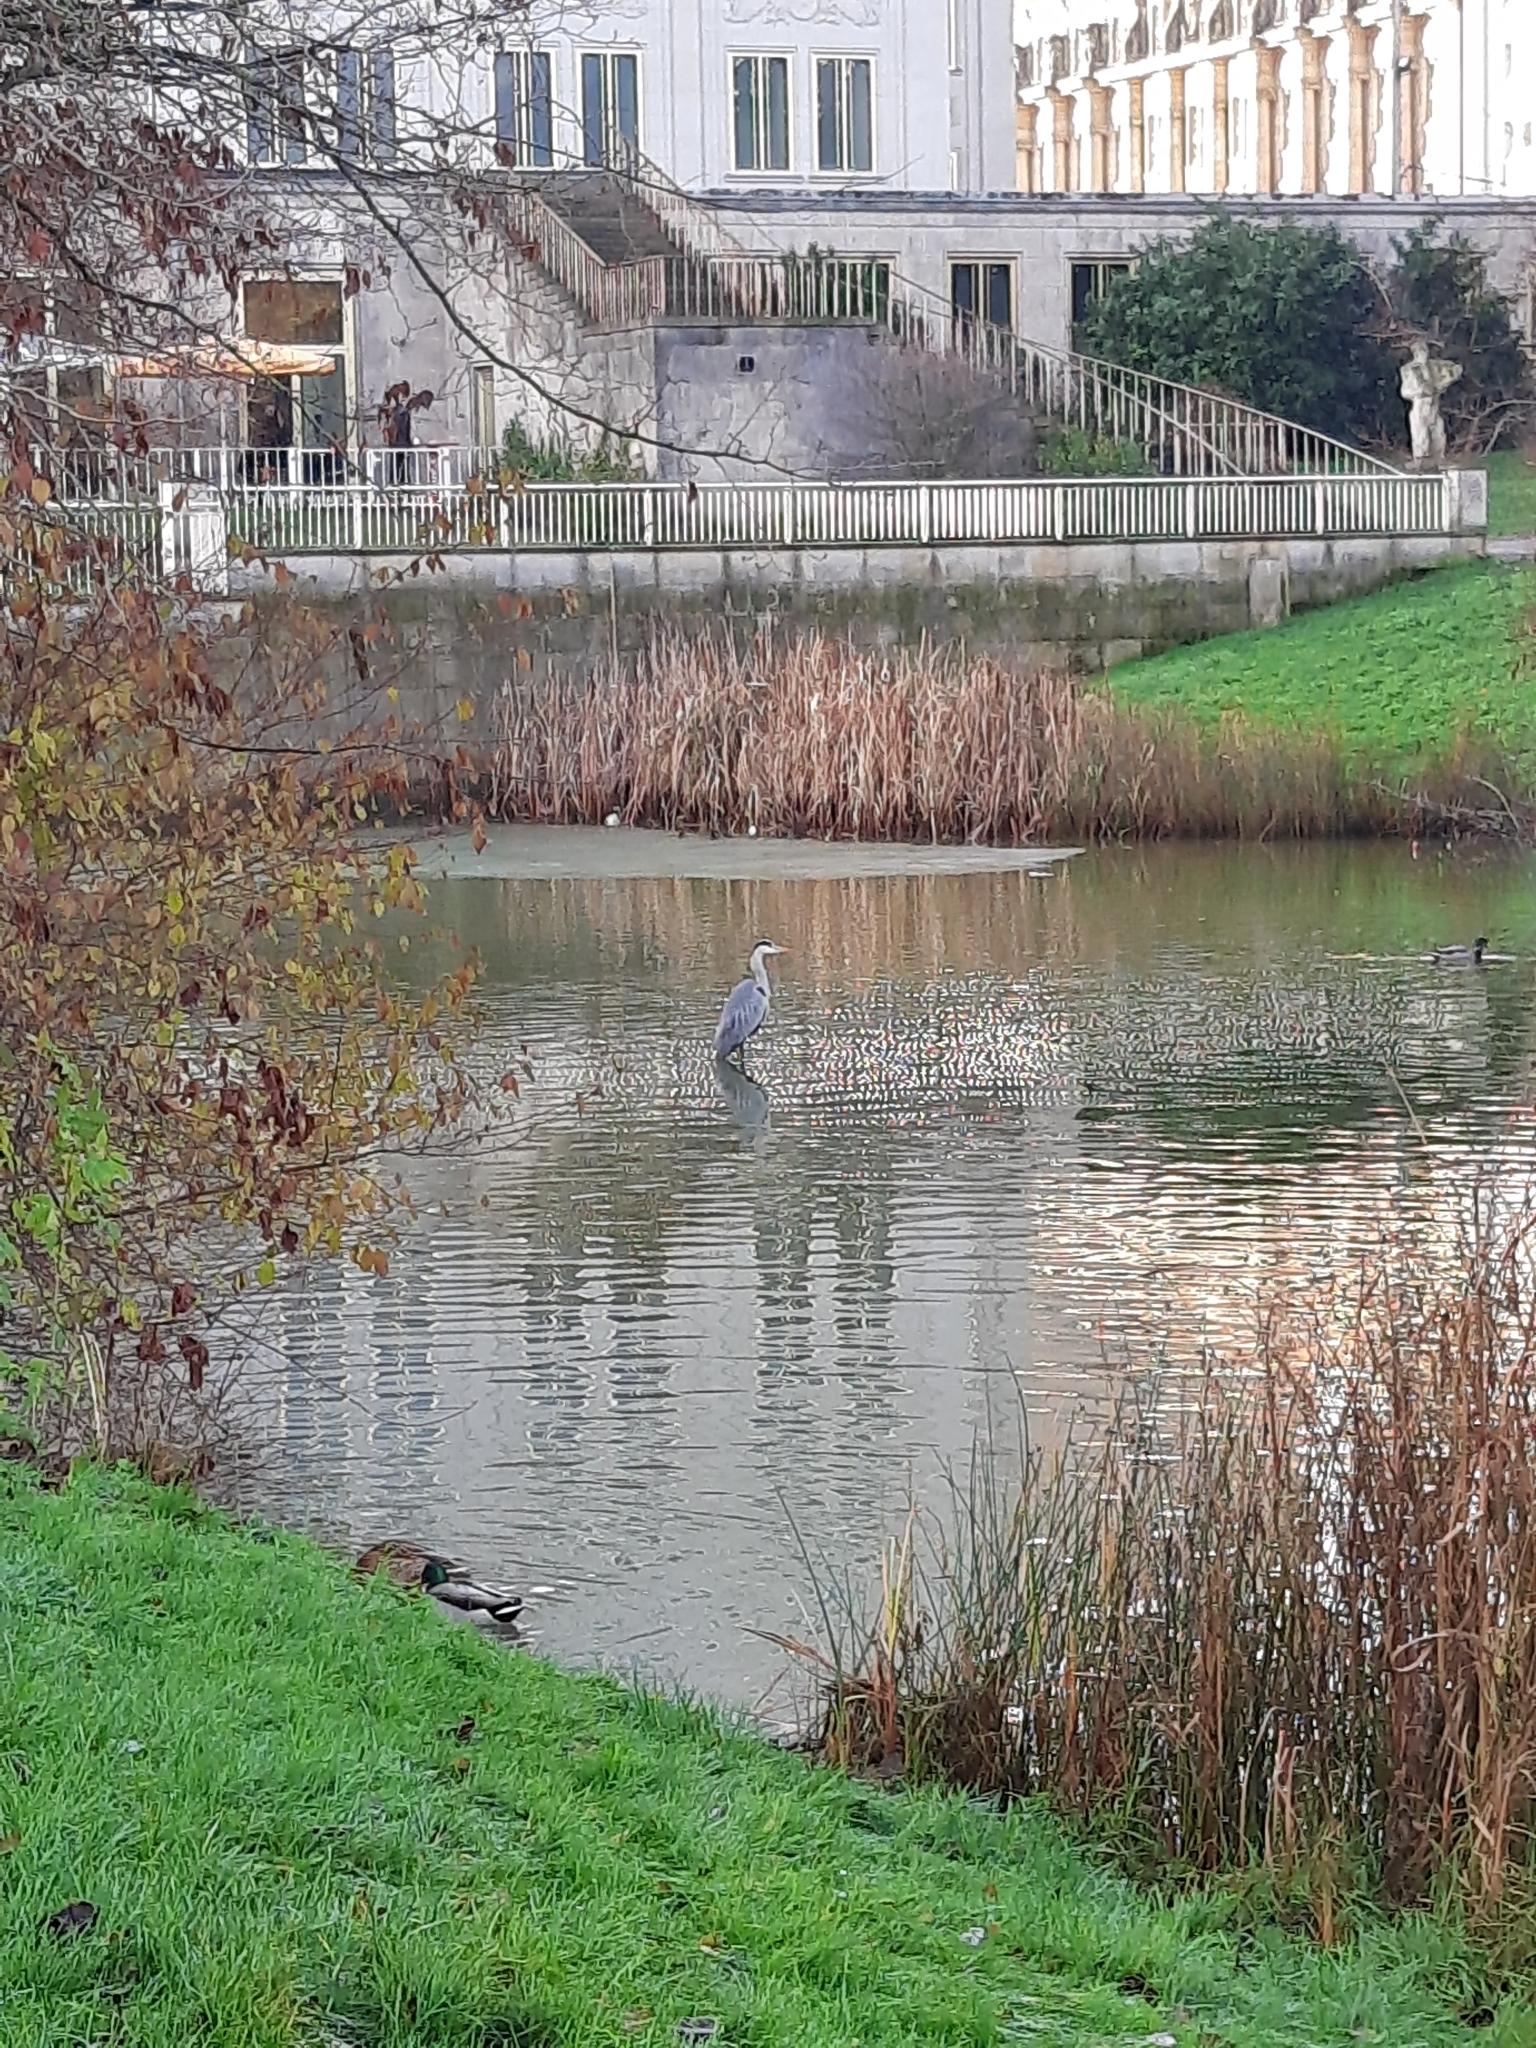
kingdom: Animalia
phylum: Chordata
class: Aves
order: Pelecaniformes
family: Ardeidae
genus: Ardea
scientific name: Ardea cinerea
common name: Grey heron
